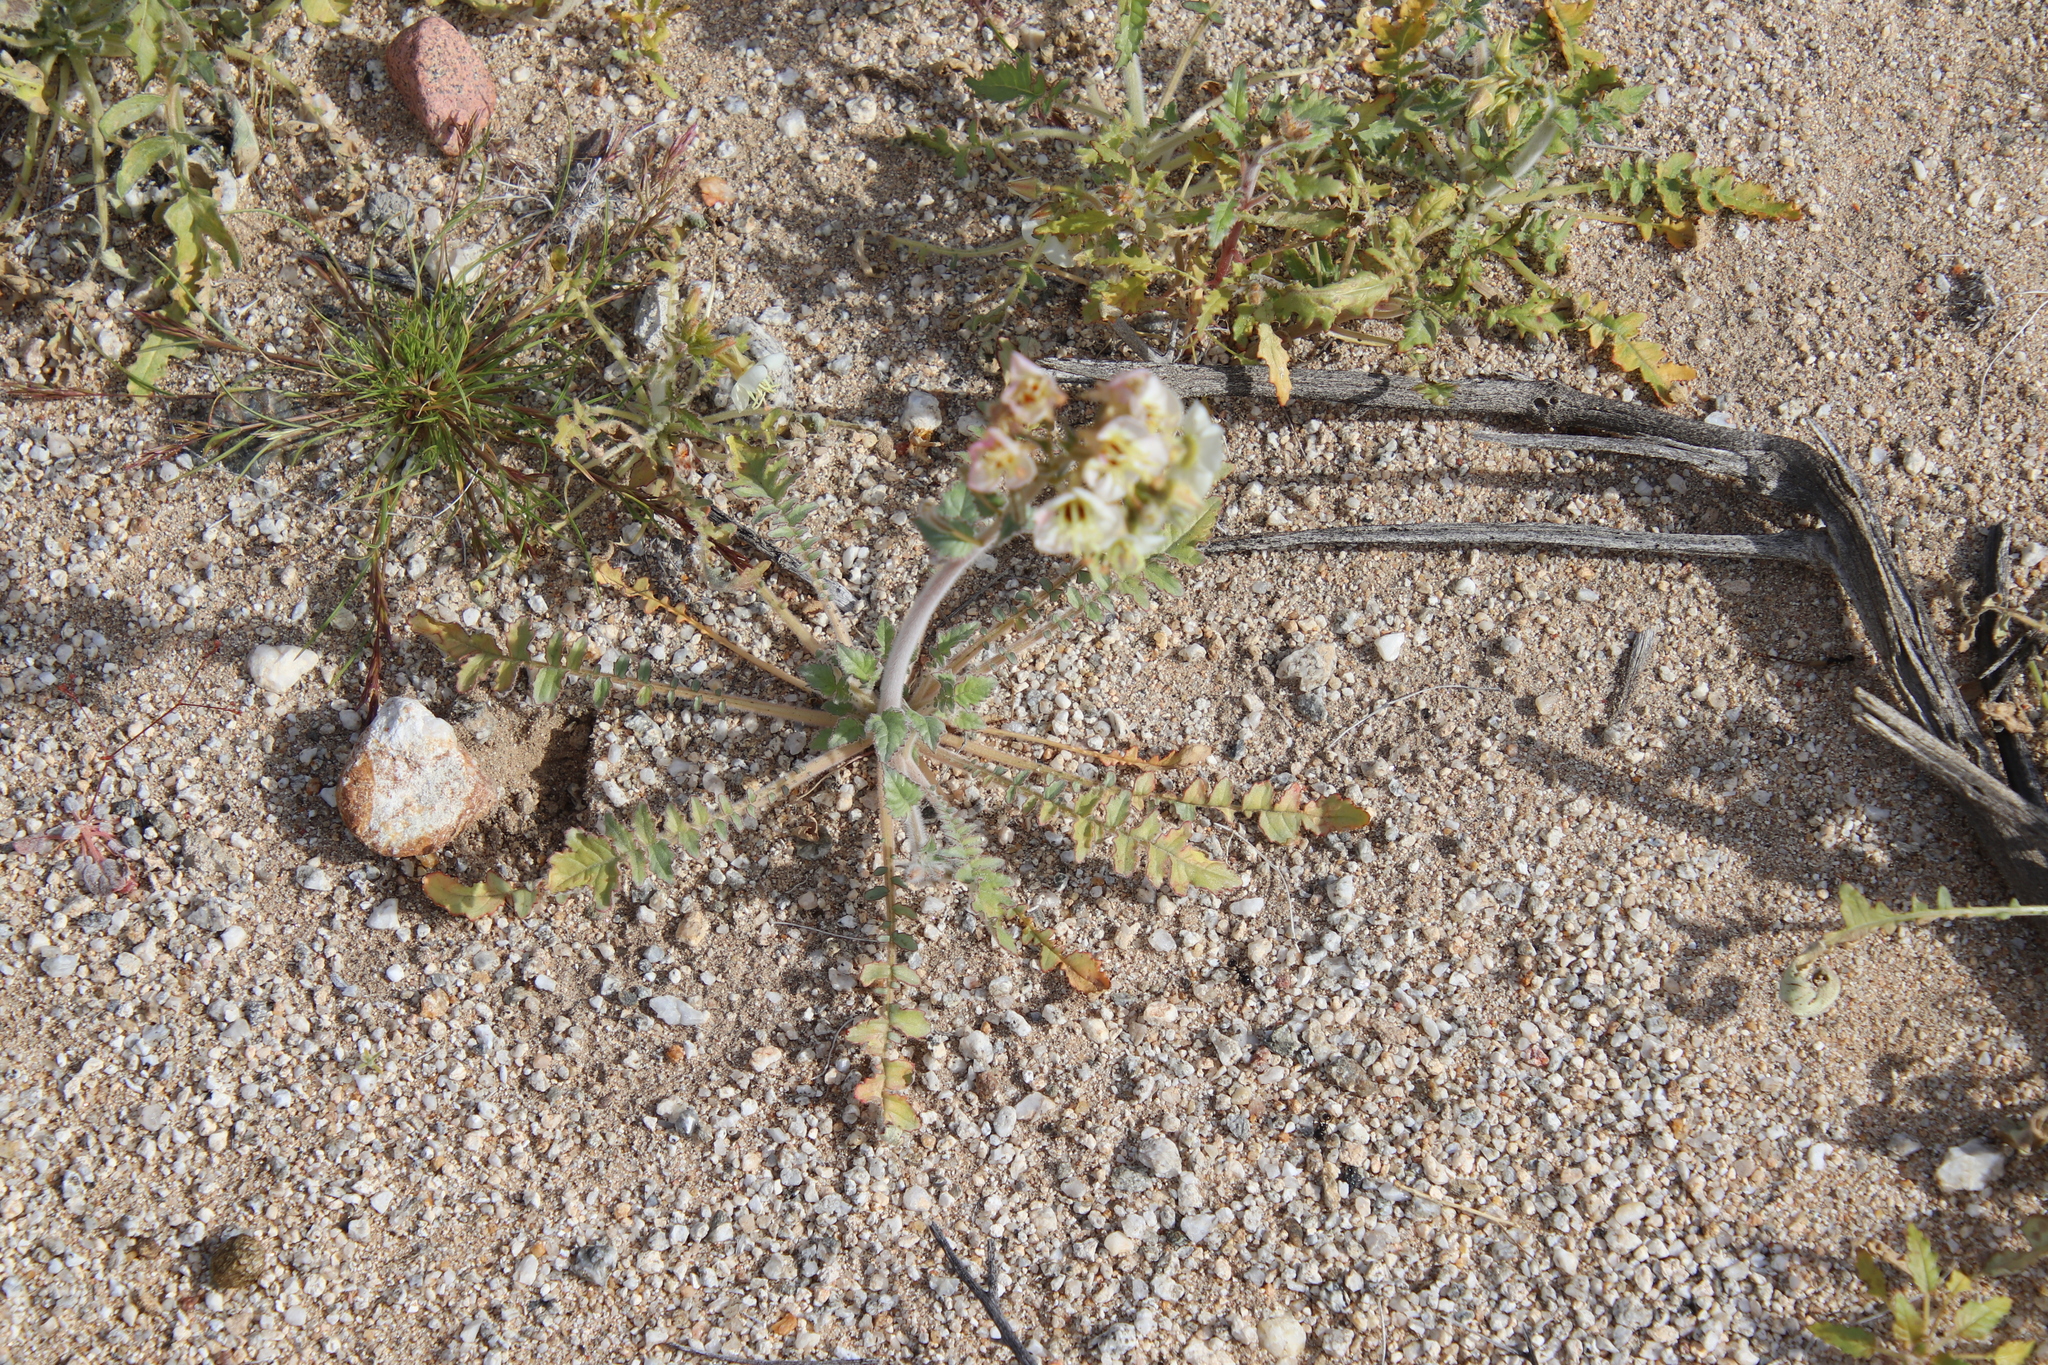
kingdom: Plantae
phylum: Tracheophyta
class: Magnoliopsida
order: Myrtales
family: Onagraceae
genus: Chylismia
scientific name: Chylismia claviformis
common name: Browneyes
